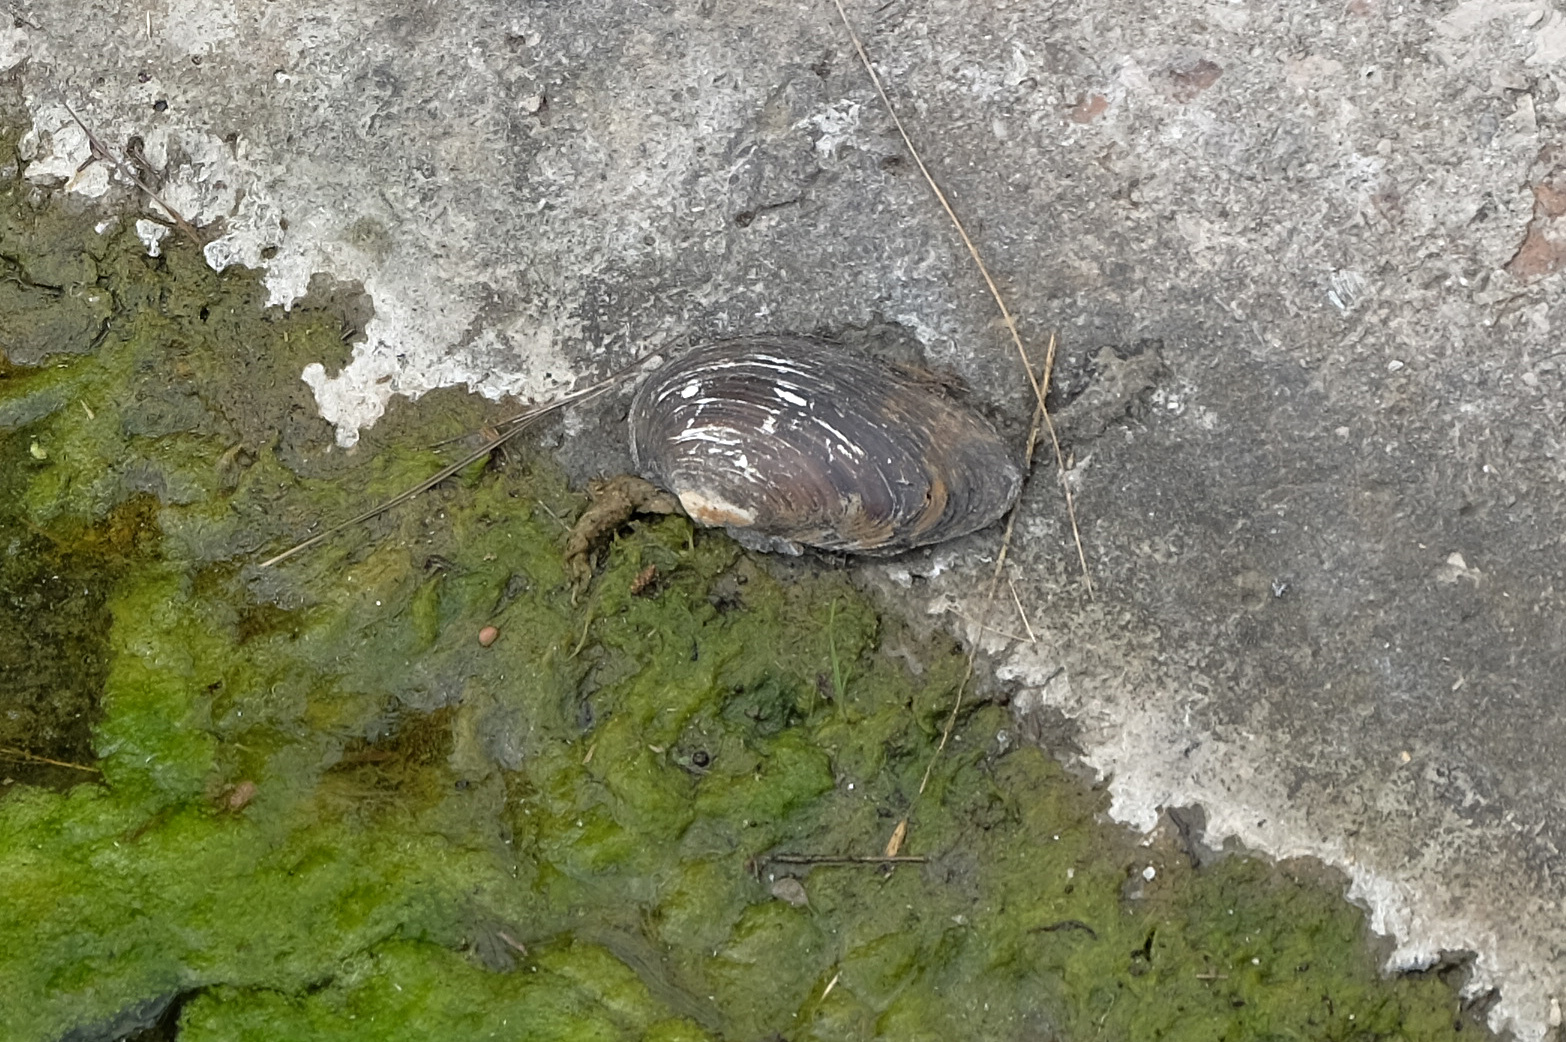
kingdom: Animalia
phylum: Mollusca
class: Bivalvia
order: Unionida
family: Unionidae
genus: Unio
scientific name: Unio crassus
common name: Thick shelled river mussel
